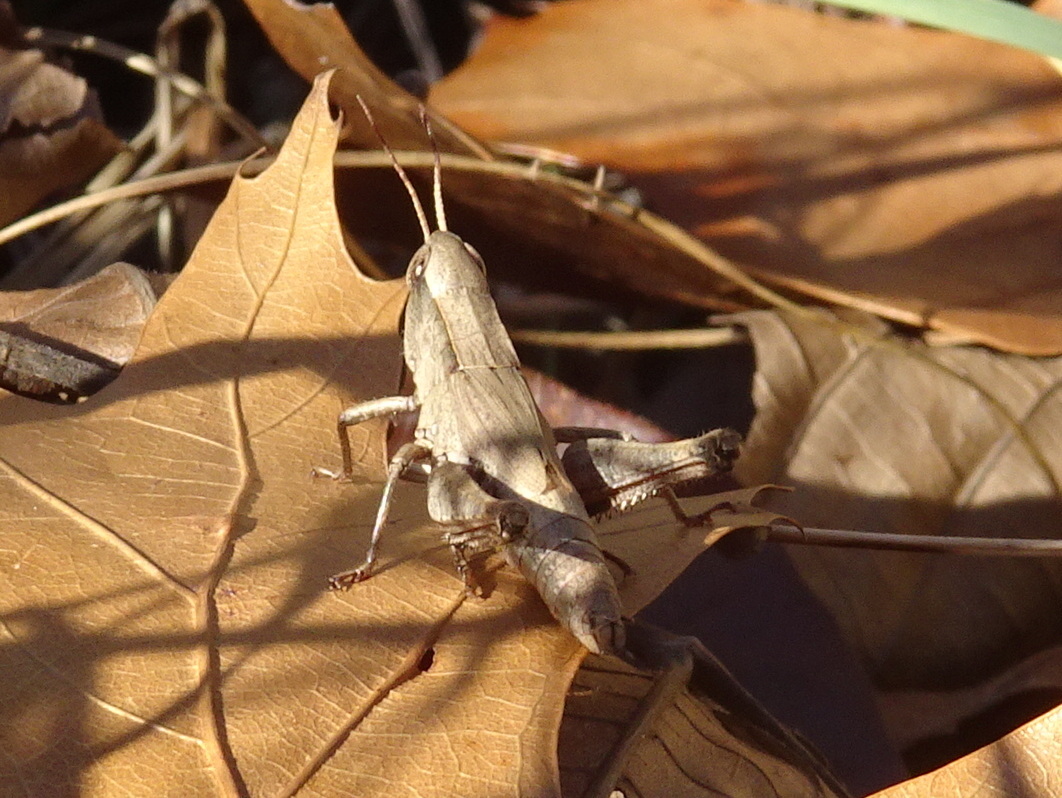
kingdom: Animalia
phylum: Arthropoda
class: Insecta
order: Orthoptera
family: Acrididae
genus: Dichromorpha
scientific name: Dichromorpha viridis
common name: Short-winged green grasshopper
